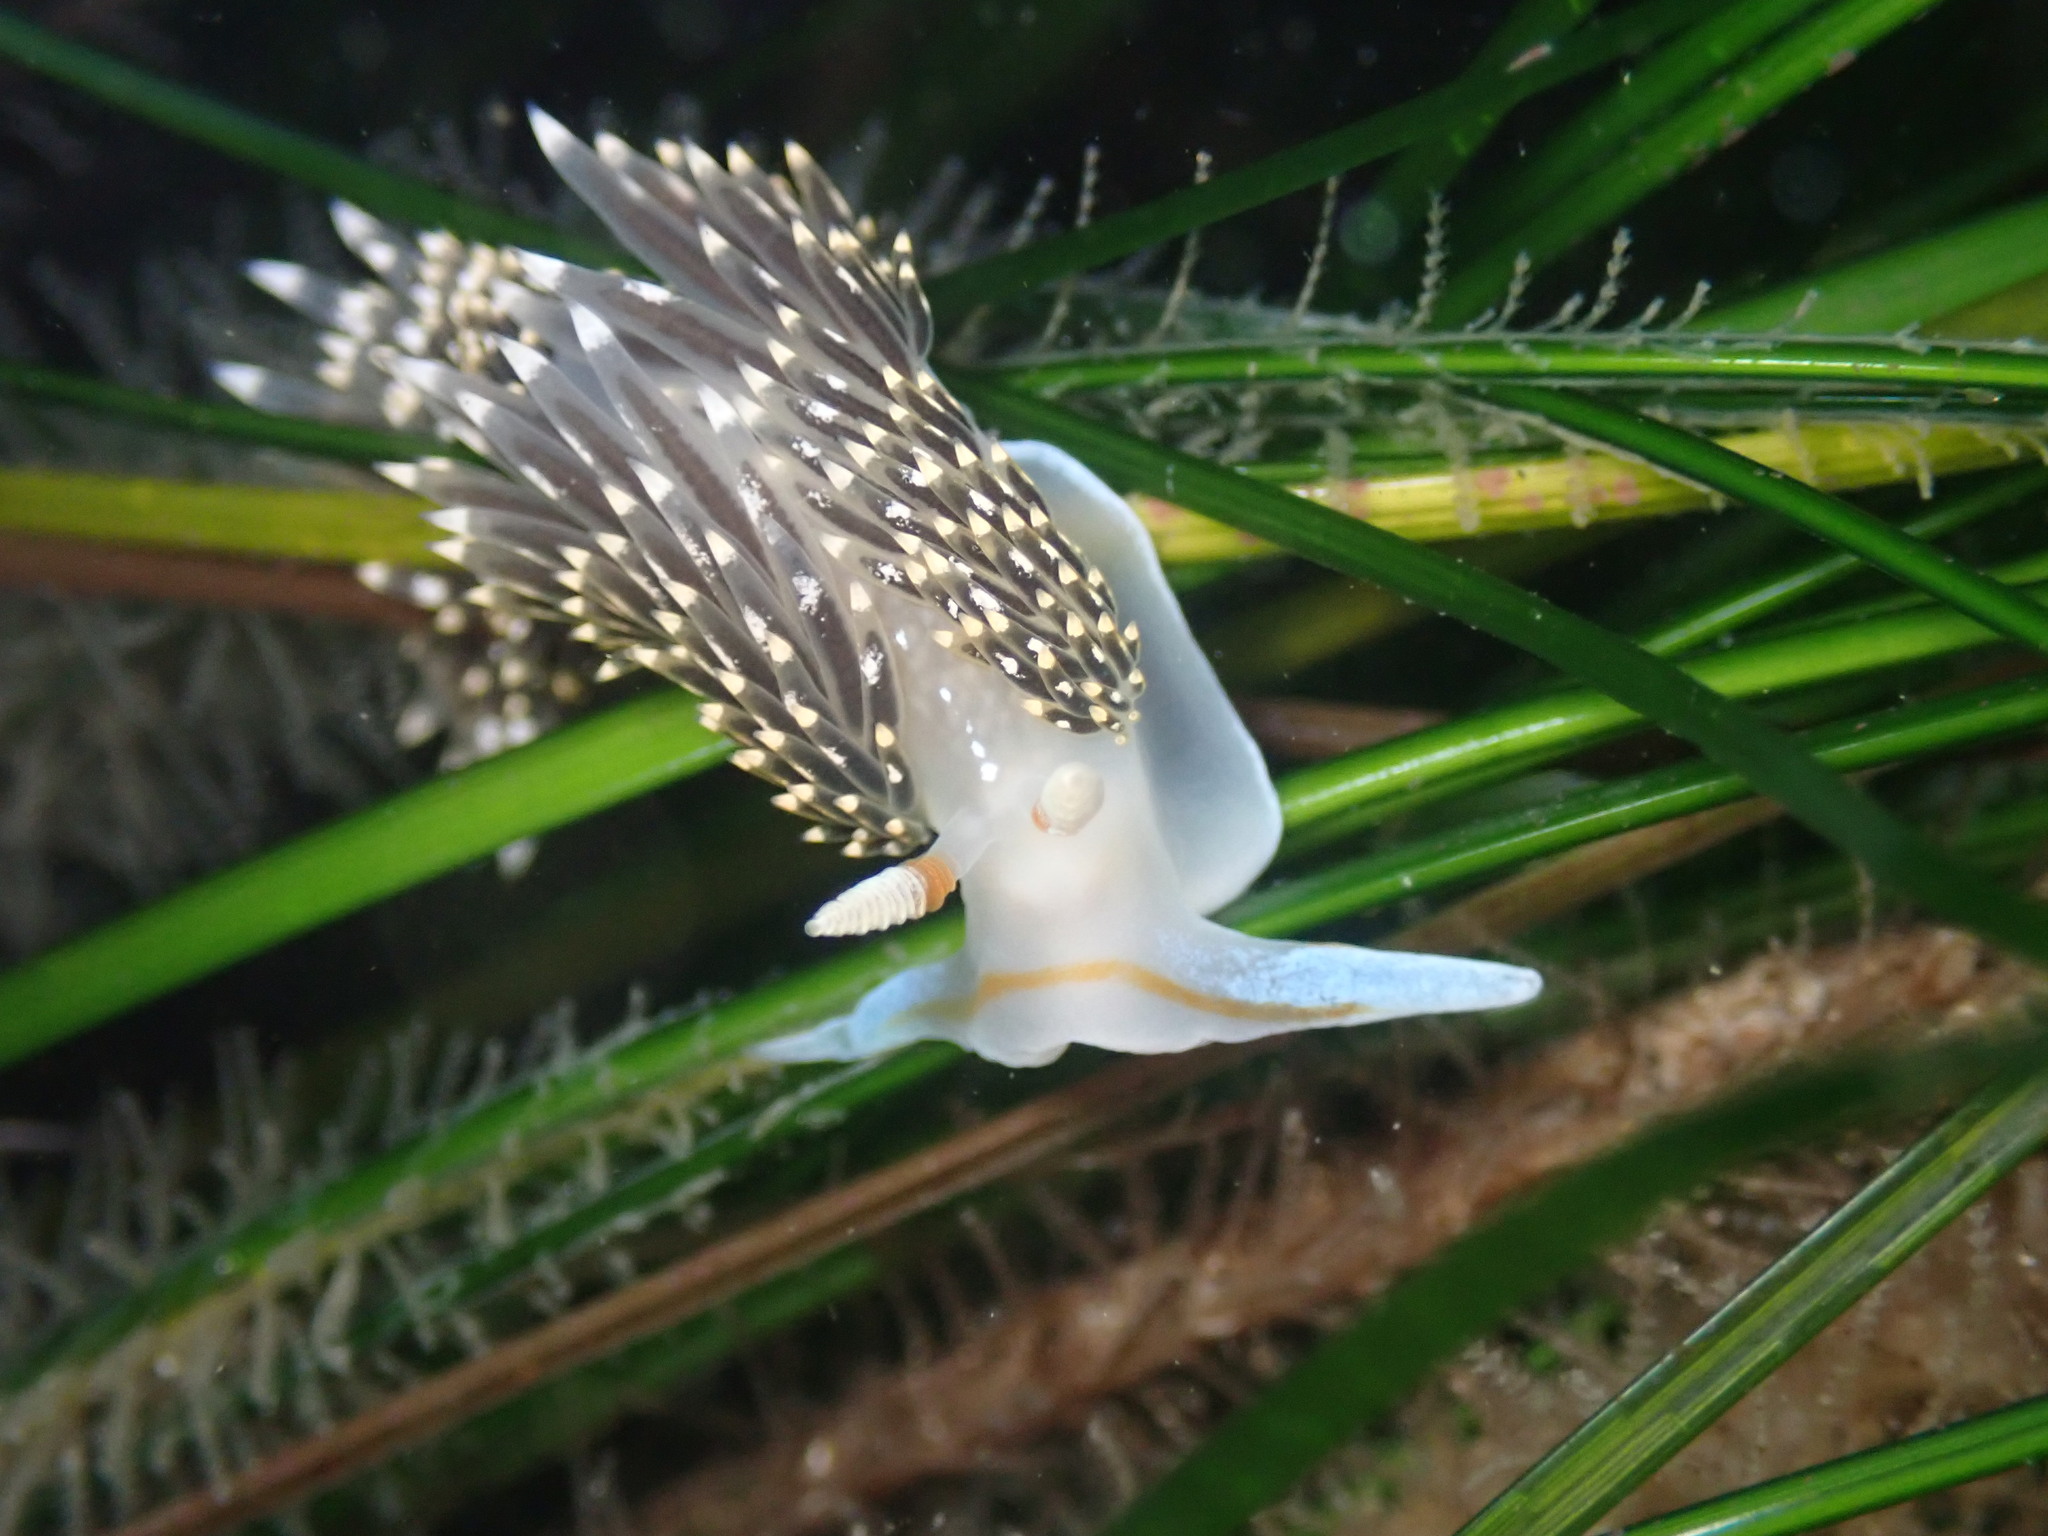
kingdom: Animalia
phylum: Mollusca
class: Gastropoda
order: Nudibranchia
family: Facelinidae
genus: Phidiana
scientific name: Phidiana hiltoni
